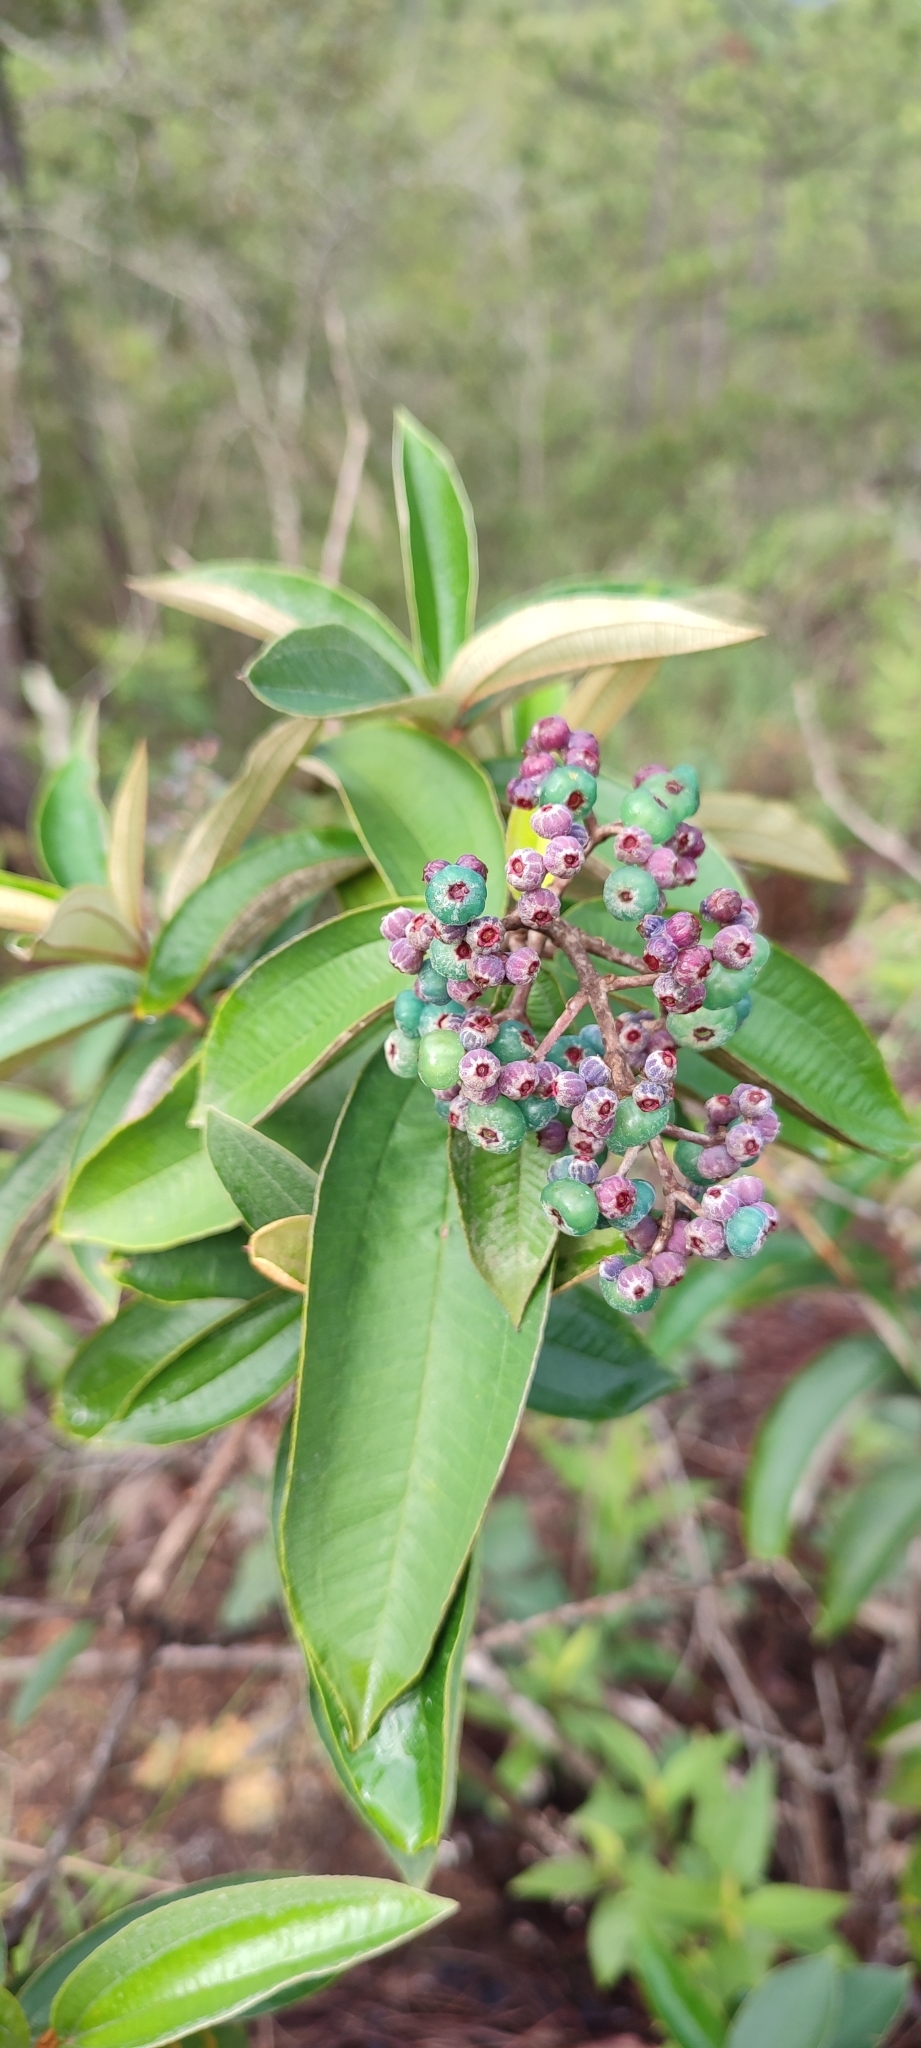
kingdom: Plantae
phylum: Tracheophyta
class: Magnoliopsida
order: Myrtales
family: Melastomataceae
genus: Miconia
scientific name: Miconia albicans
